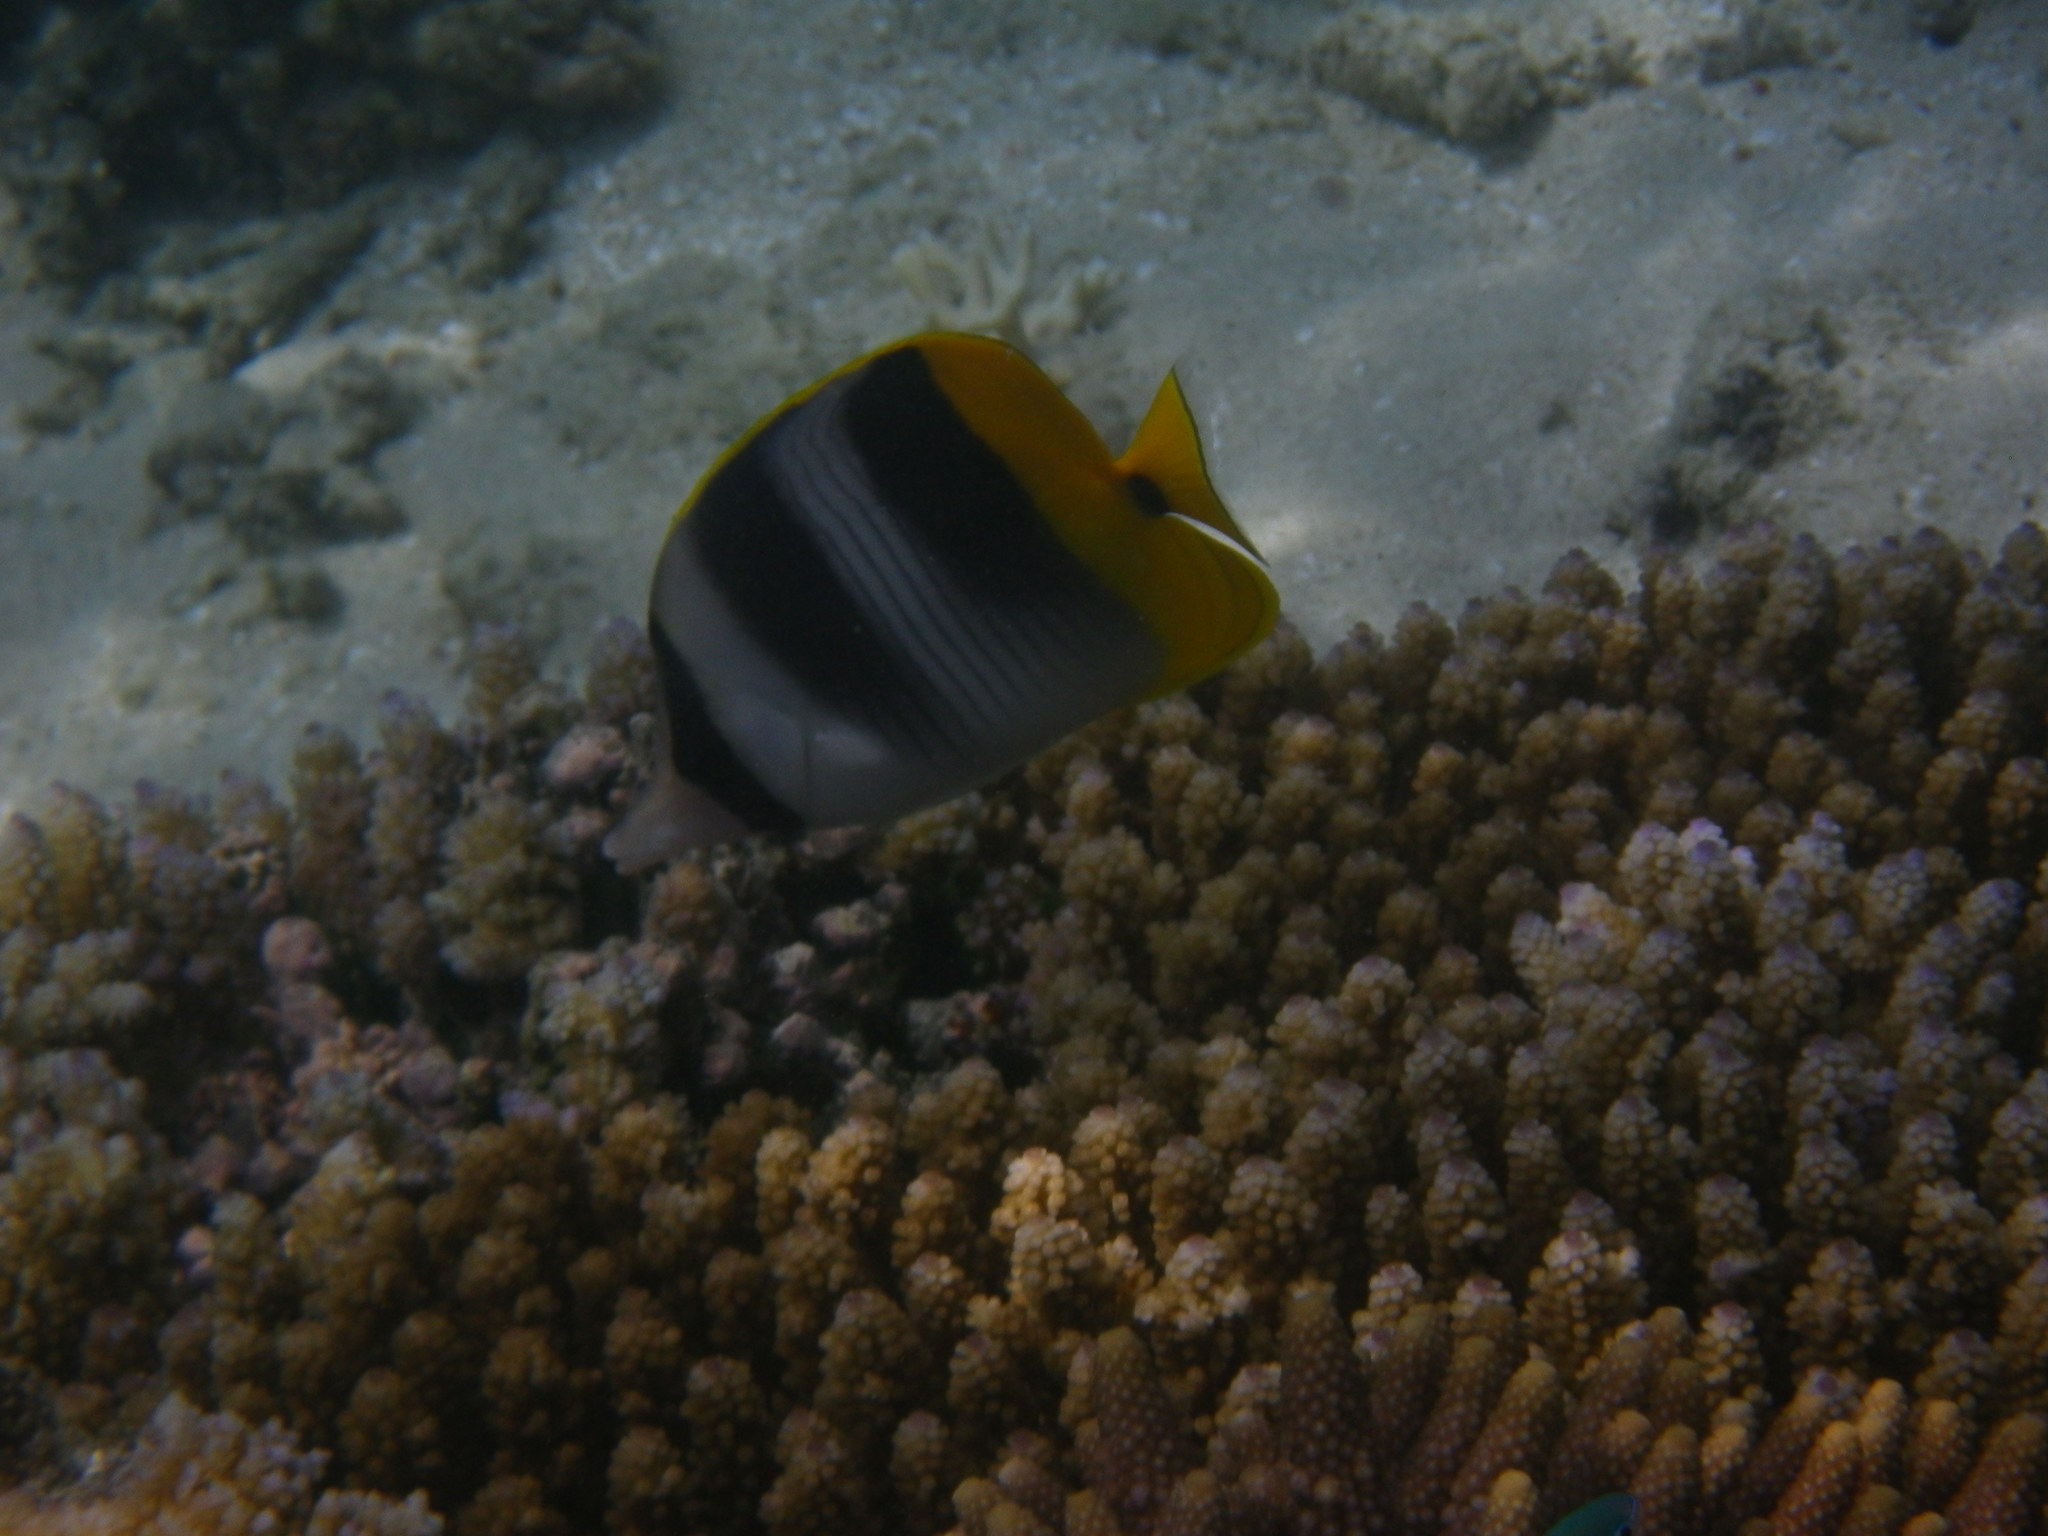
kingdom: Animalia
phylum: Chordata
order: Perciformes
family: Chaetodontidae
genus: Chaetodon
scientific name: Chaetodon ulietensis
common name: Pacific double-saddle butterflyfish
